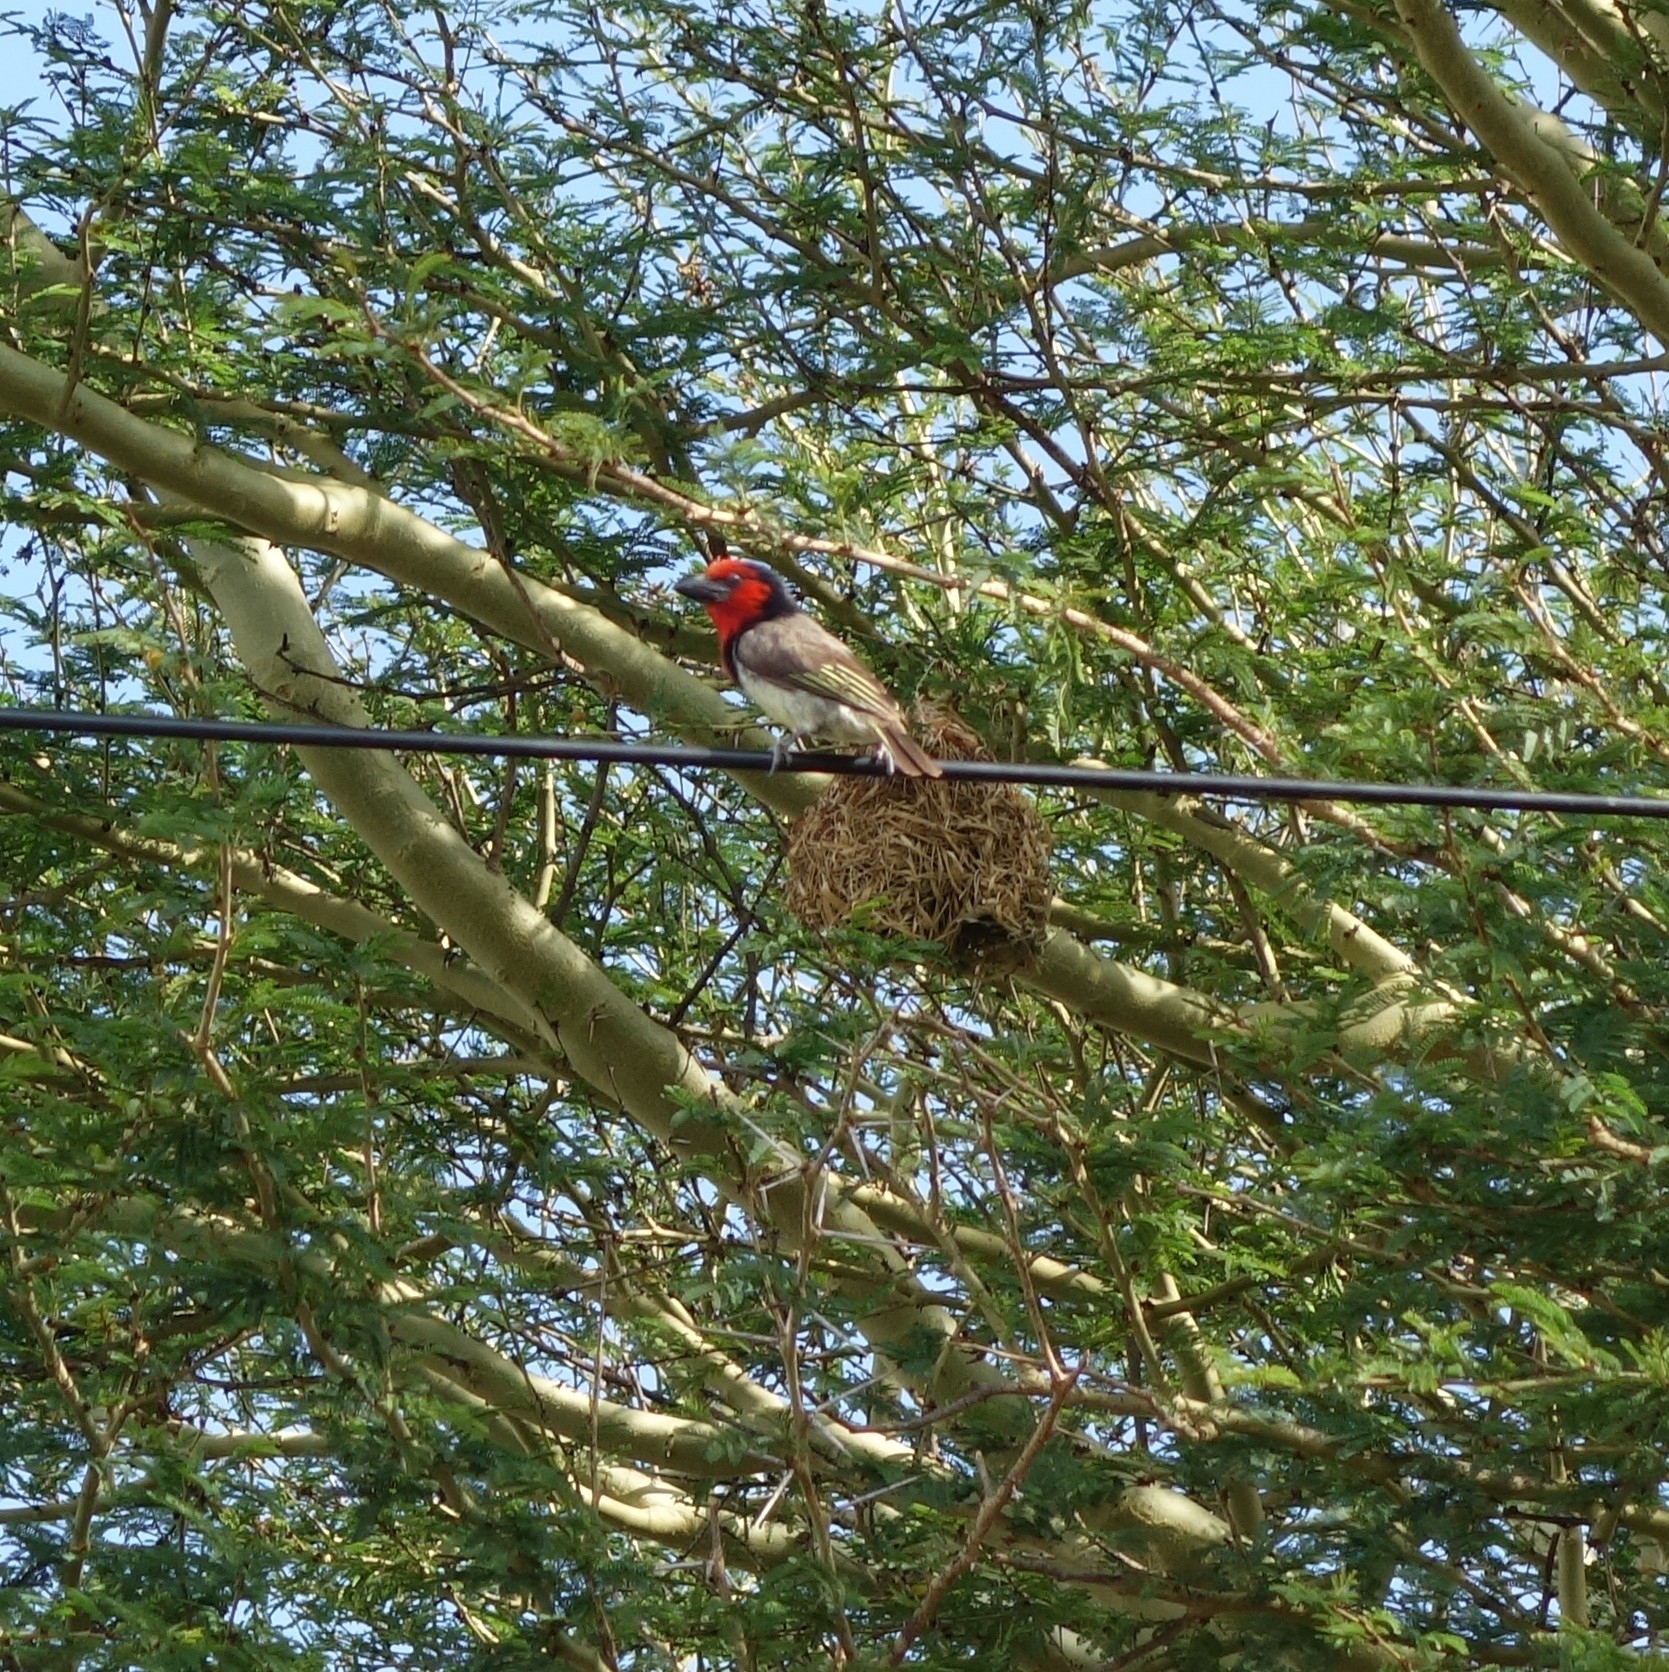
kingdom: Animalia
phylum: Chordata
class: Aves
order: Piciformes
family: Lybiidae
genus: Lybius
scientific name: Lybius torquatus
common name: Black-collared barbet
